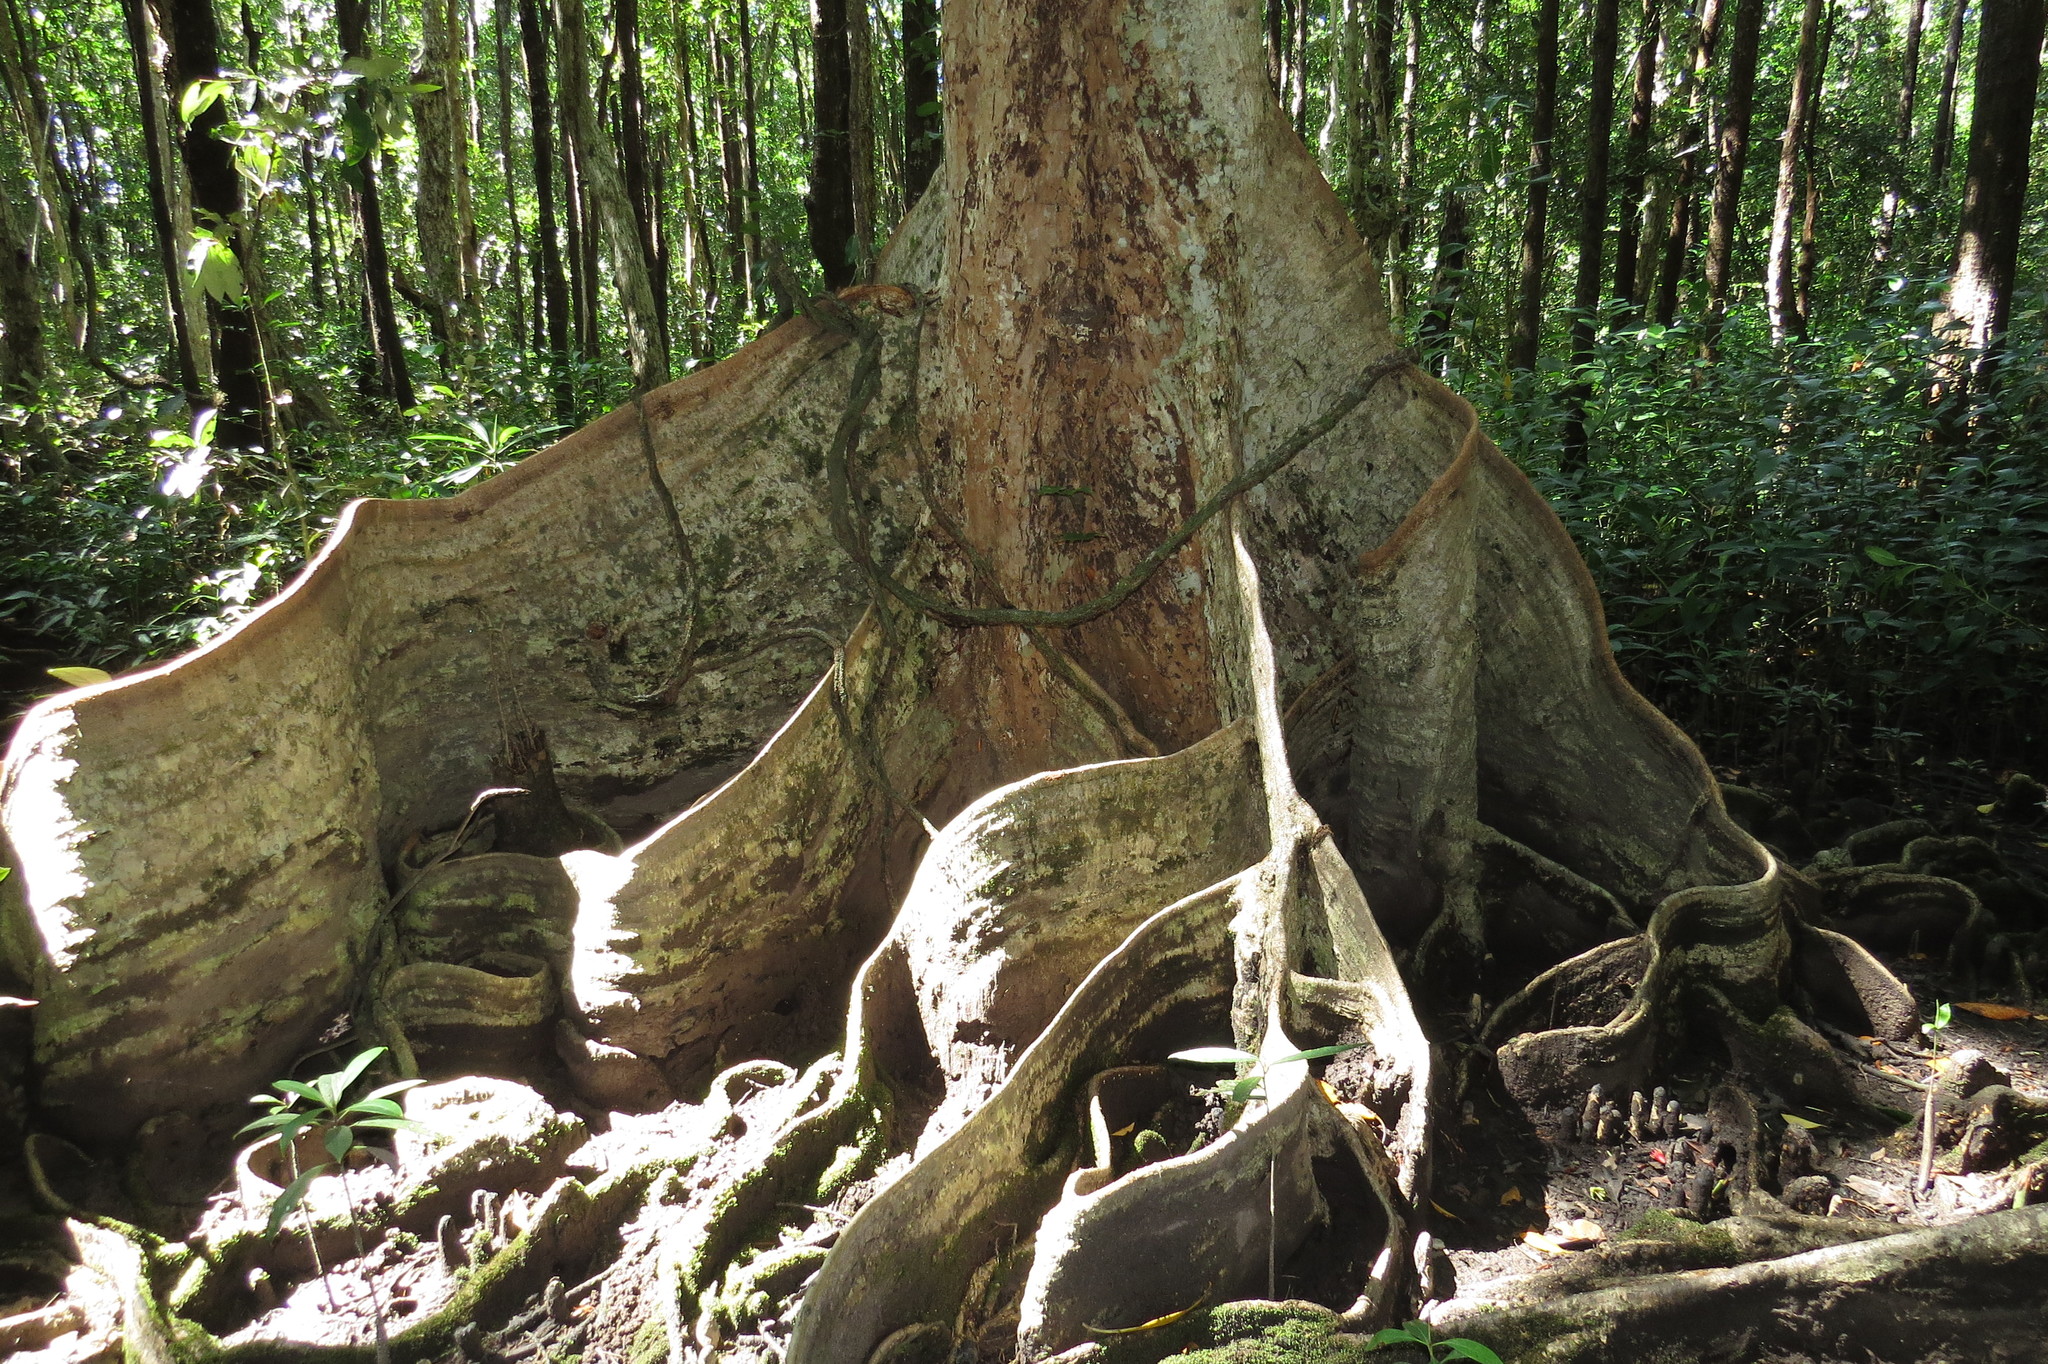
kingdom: Plantae
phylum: Tracheophyta
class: Magnoliopsida
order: Malvales
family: Malvaceae
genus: Heritiera
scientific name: Heritiera littoralis
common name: Looking-glass mangrove
